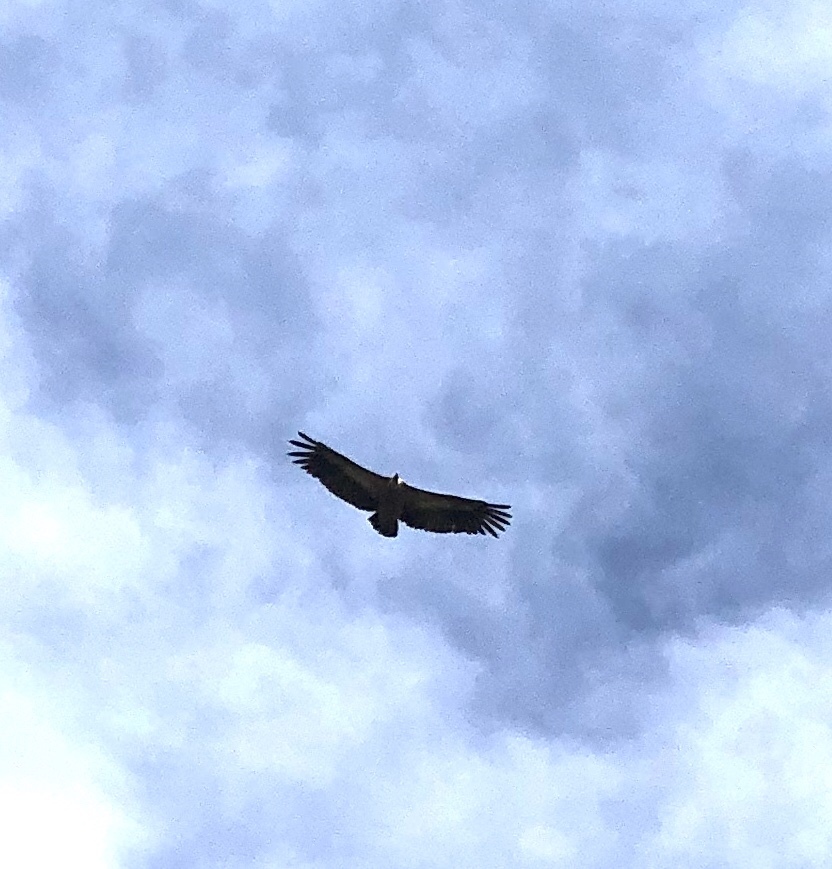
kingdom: Animalia
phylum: Chordata
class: Aves
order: Accipitriformes
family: Accipitridae
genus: Gyps
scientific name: Gyps fulvus
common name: Griffon vulture
